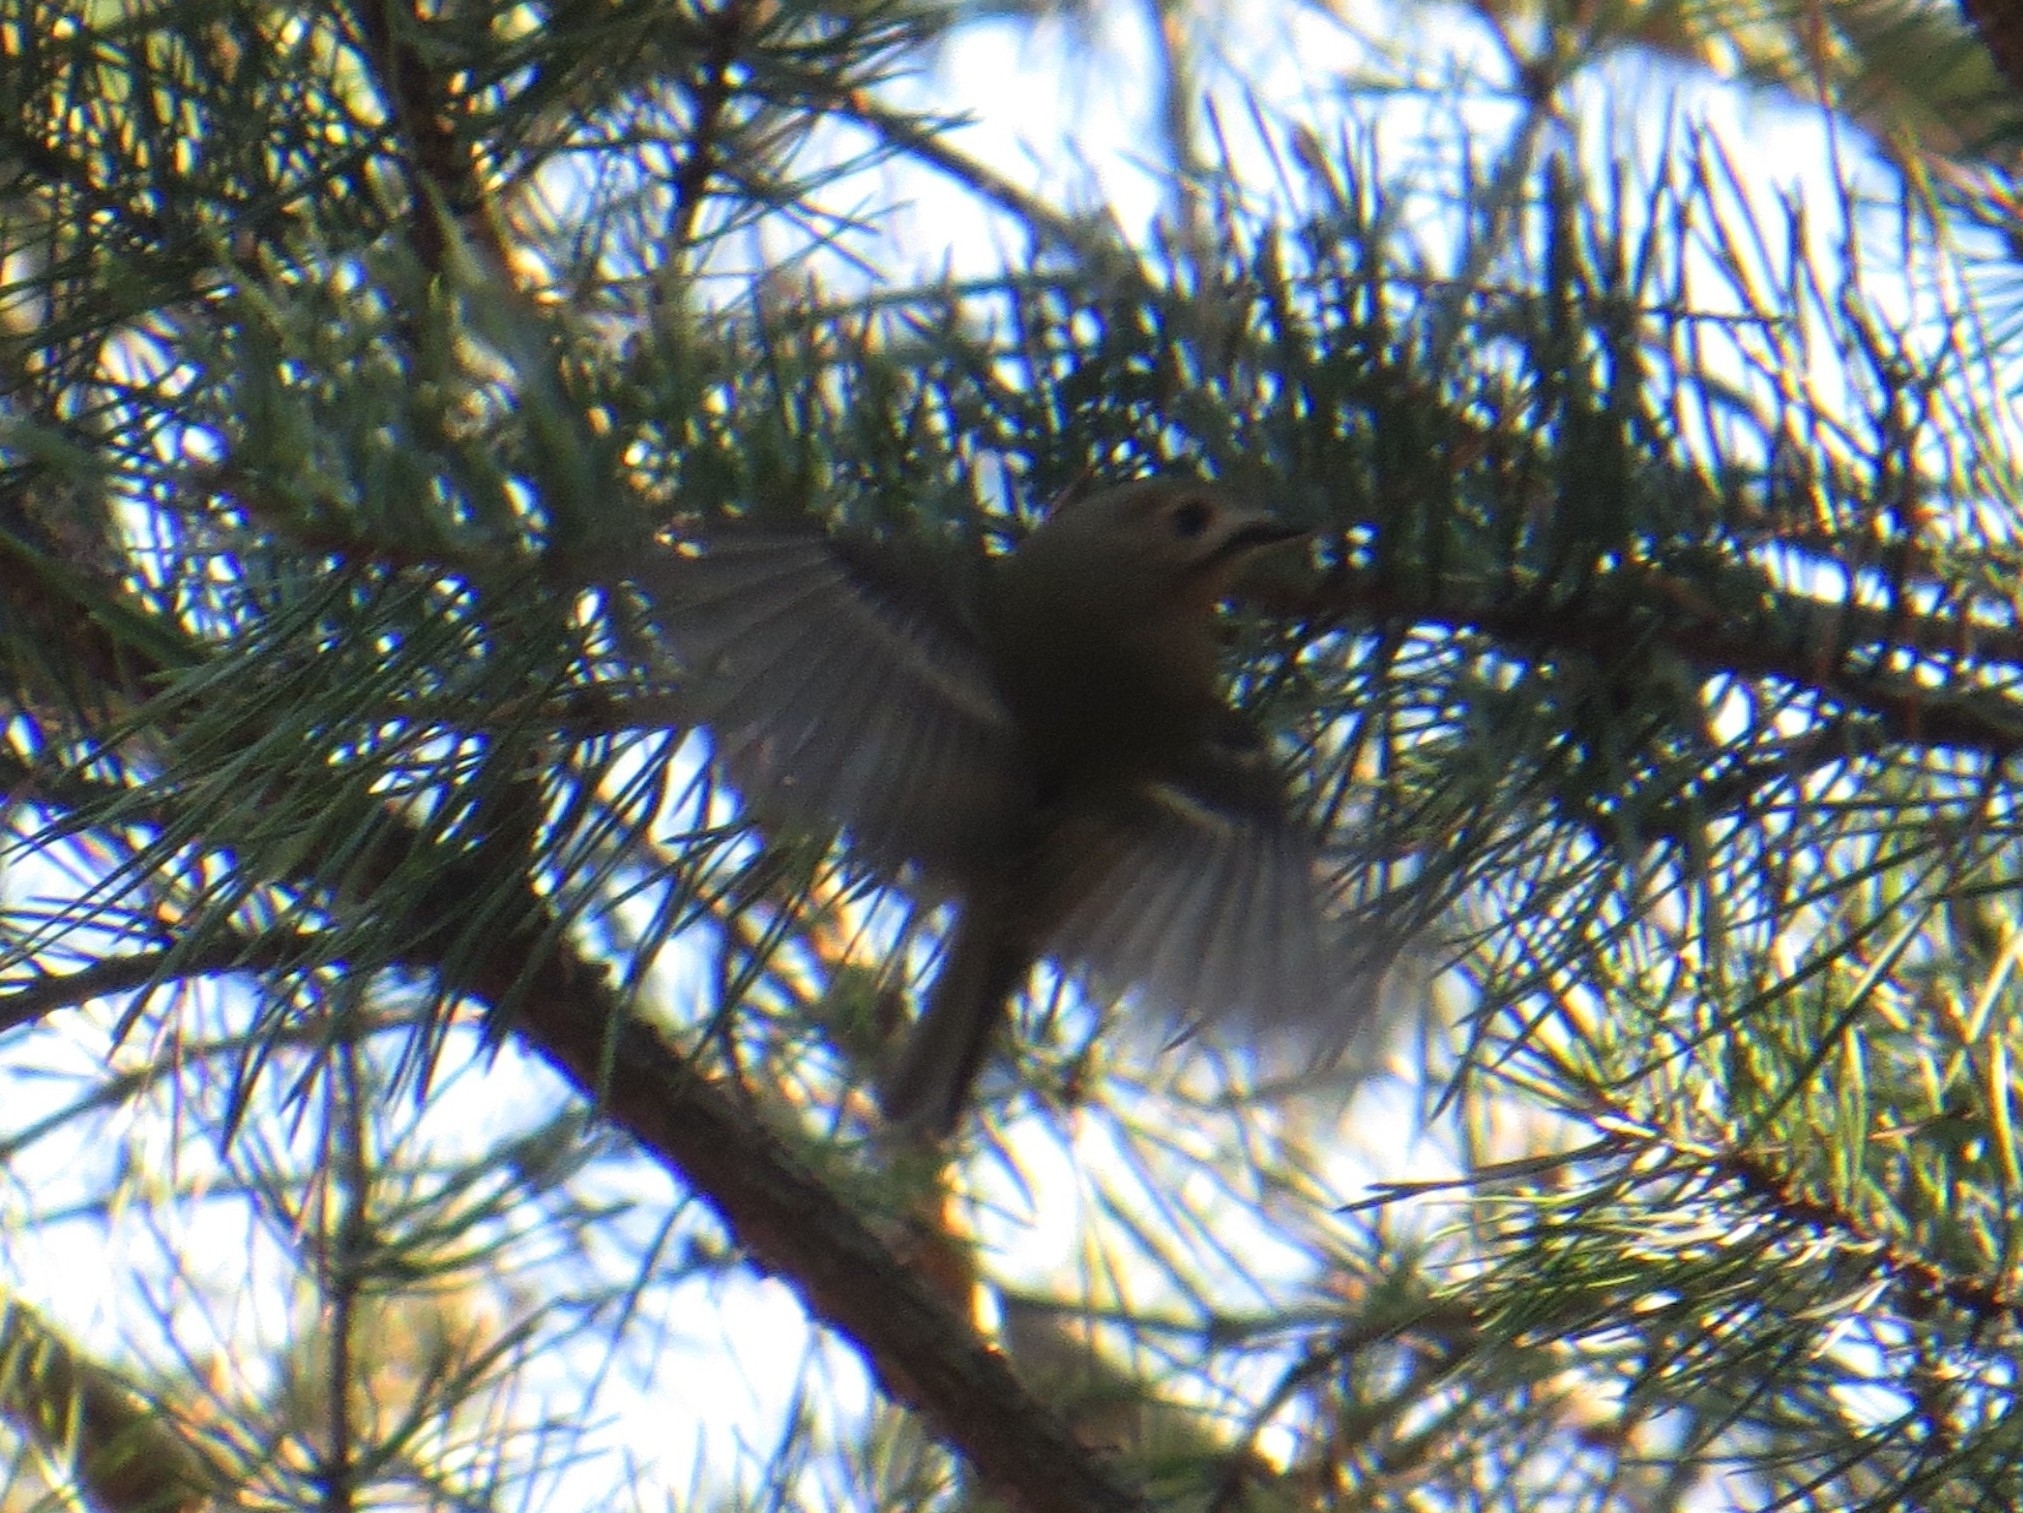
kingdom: Animalia
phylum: Chordata
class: Aves
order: Passeriformes
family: Regulidae
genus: Regulus
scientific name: Regulus regulus
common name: Goldcrest
